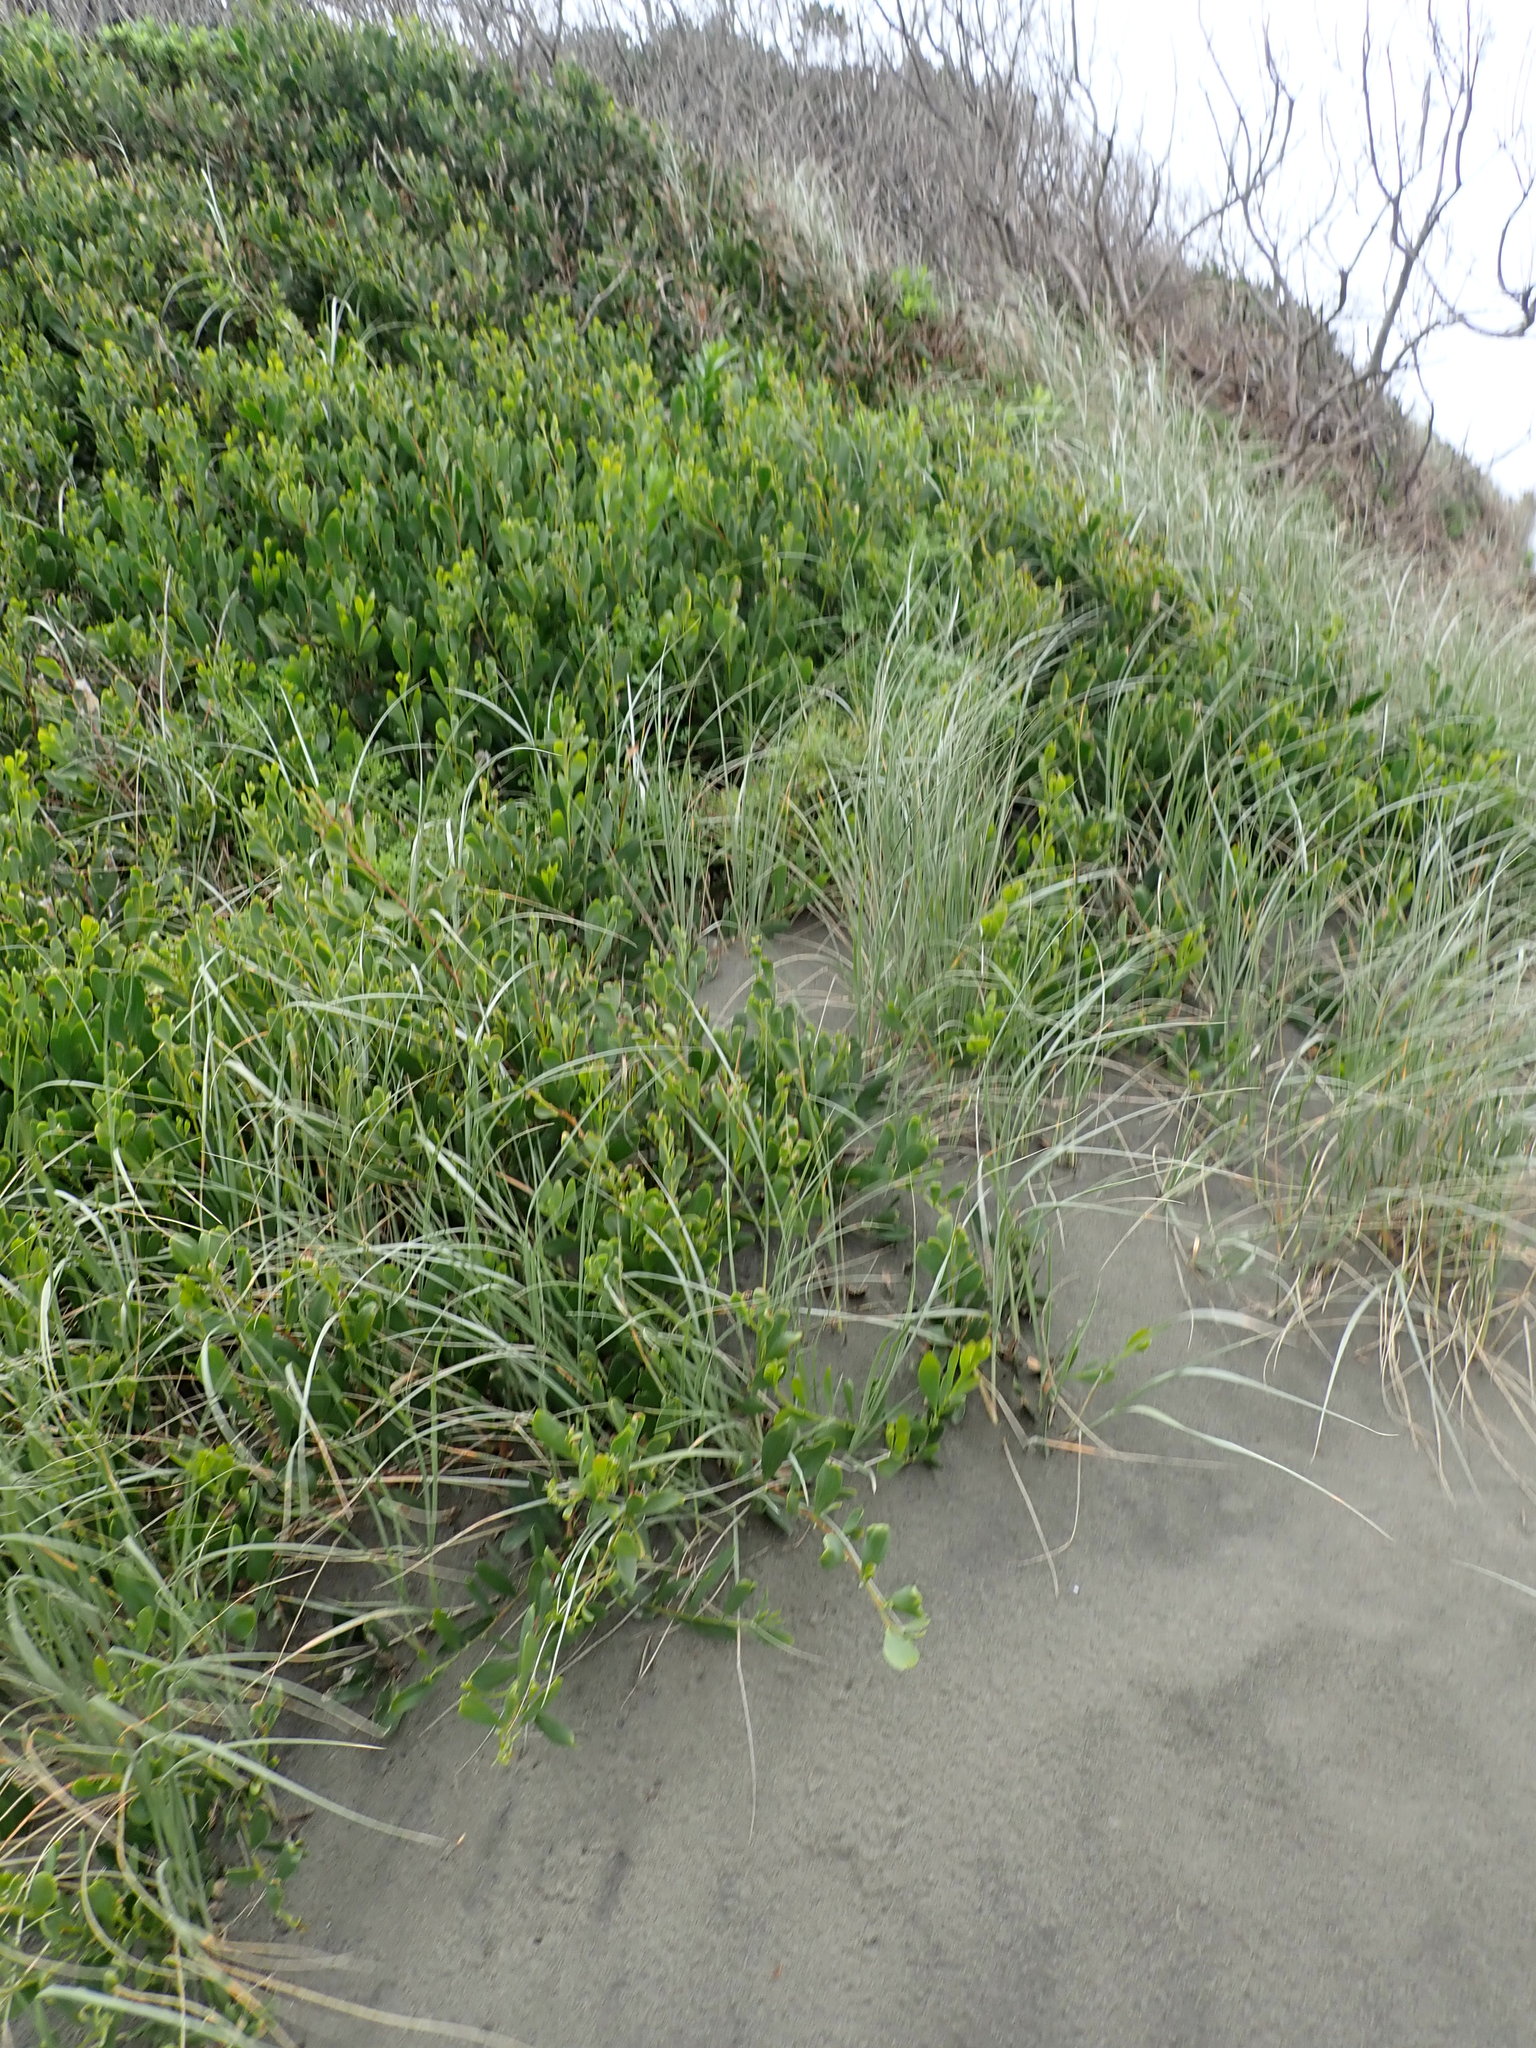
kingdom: Plantae
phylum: Tracheophyta
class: Magnoliopsida
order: Fabales
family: Fabaceae
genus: Acacia
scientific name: Acacia longifolia
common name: Sydney golden wattle
